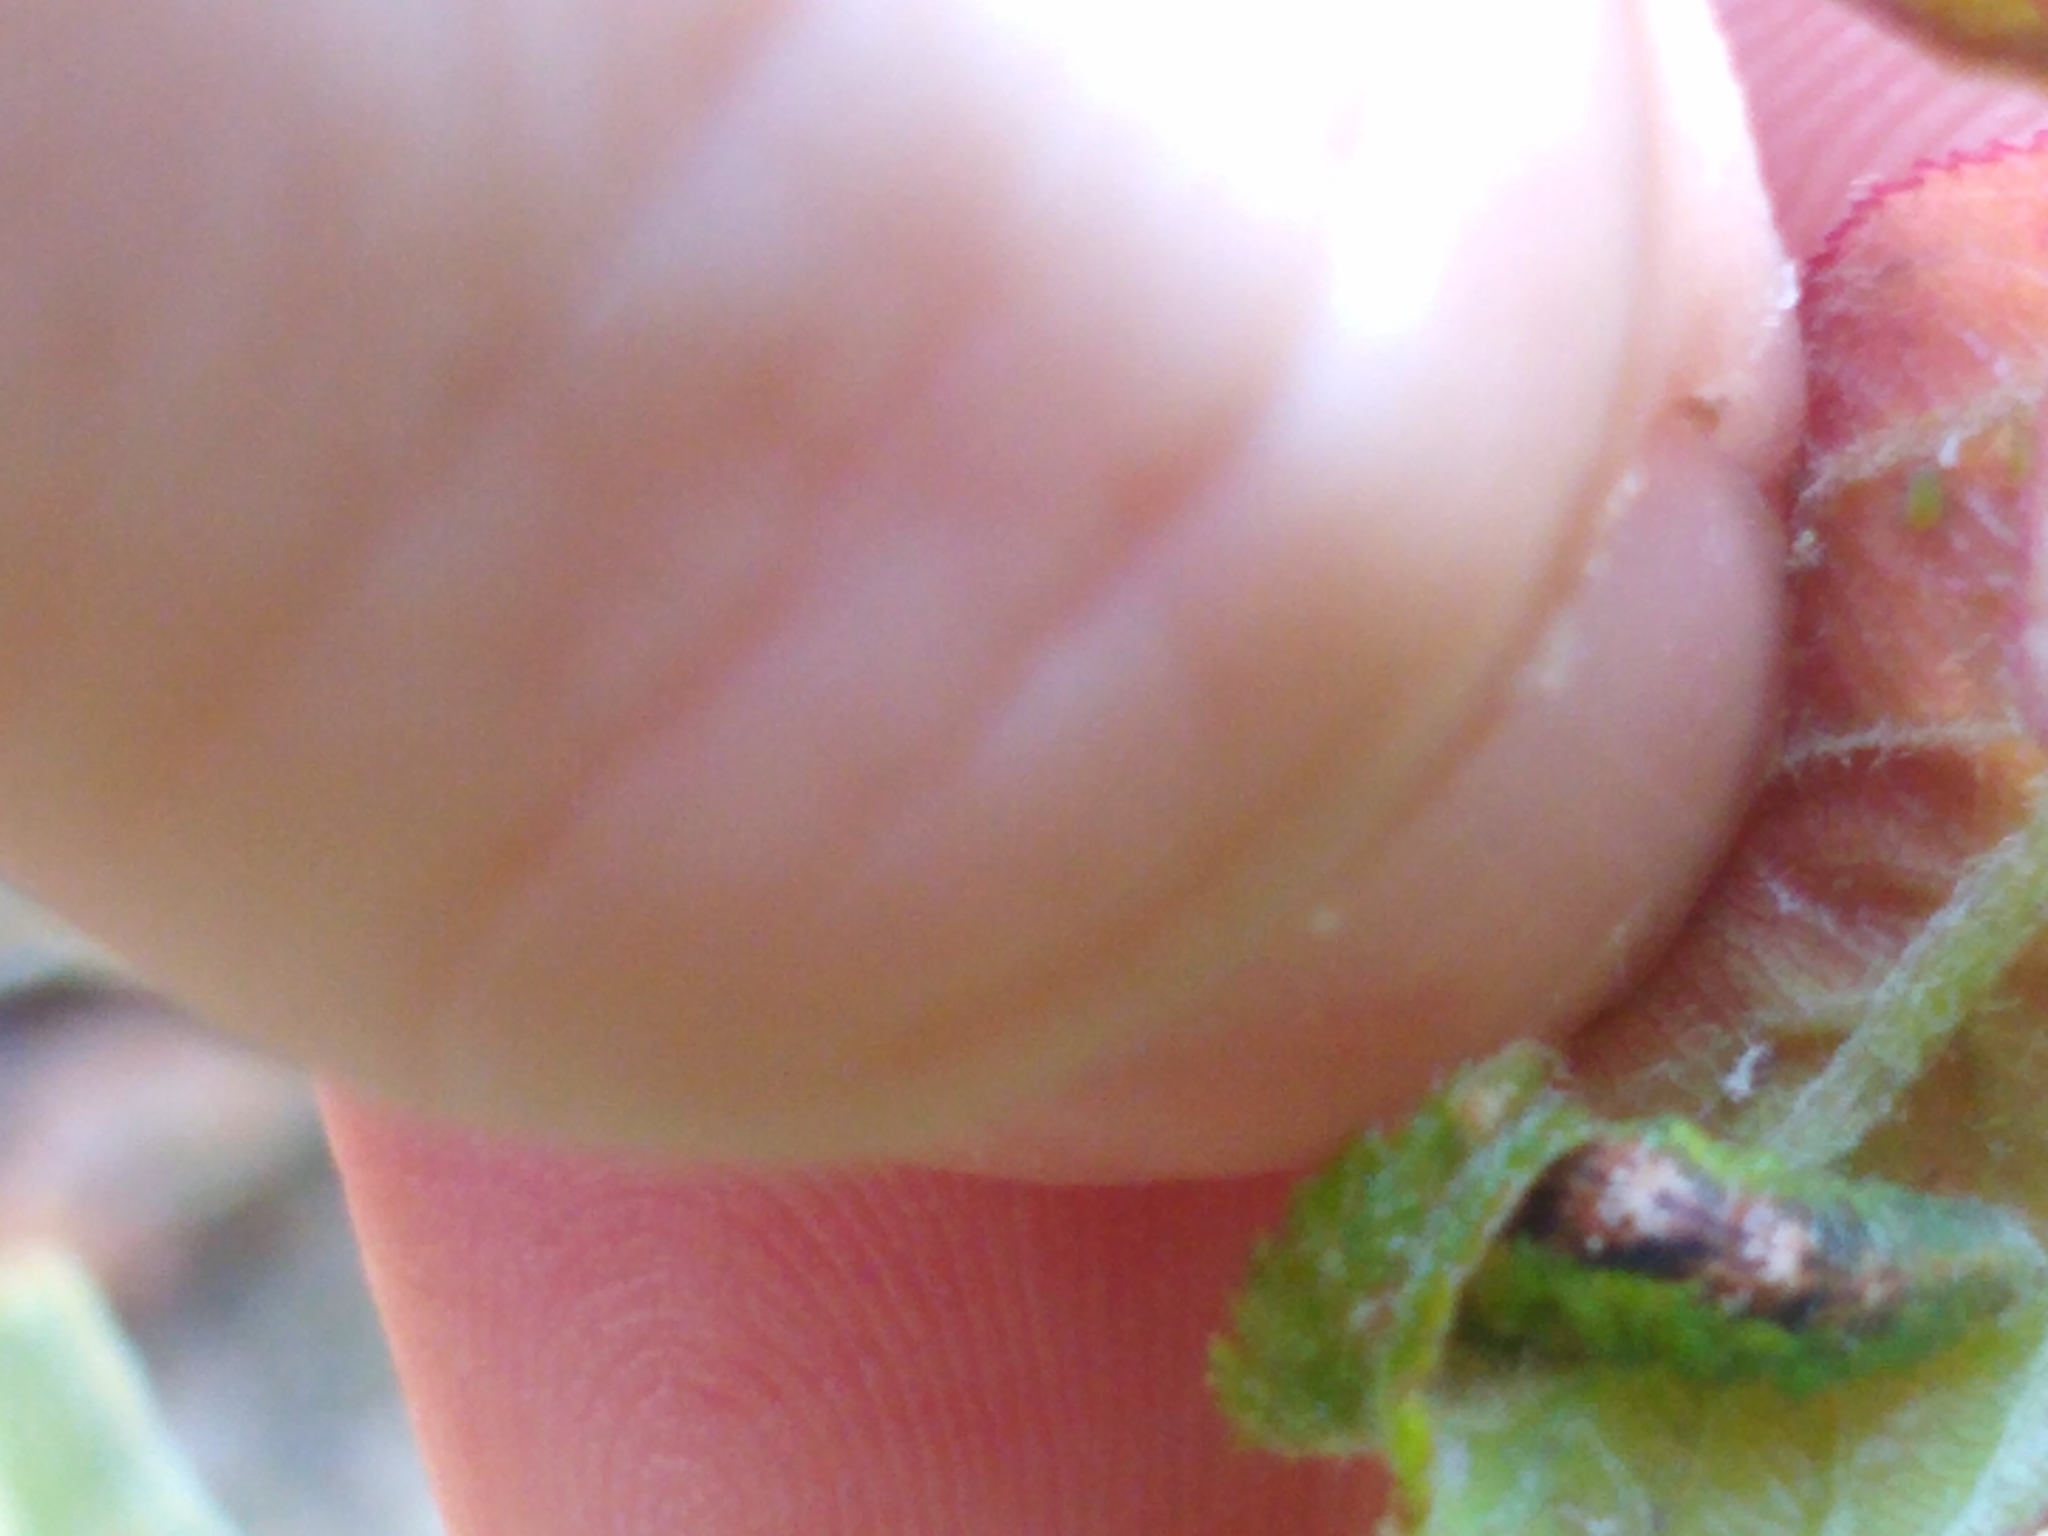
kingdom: Animalia
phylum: Arthropoda
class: Insecta
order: Diptera
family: Syrphidae
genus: Eupeodes
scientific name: Eupeodes pomus
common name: Short-tailed aphideater
